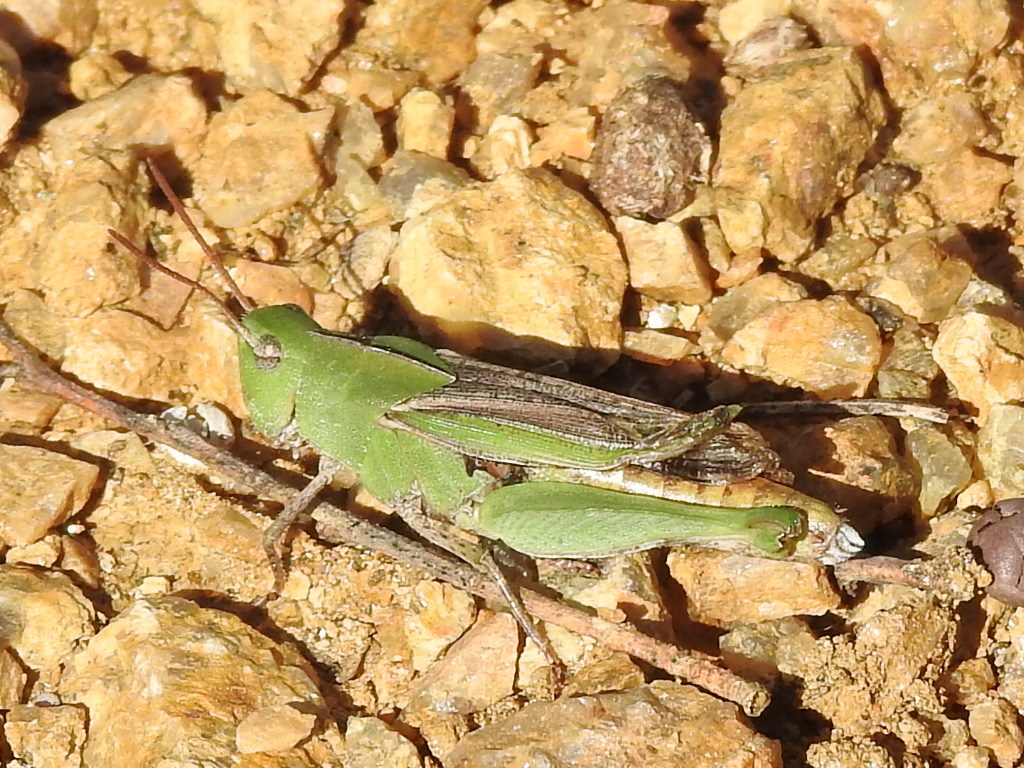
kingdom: Animalia
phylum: Arthropoda
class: Insecta
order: Orthoptera
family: Acrididae
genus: Chortophaga
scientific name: Chortophaga viridifasciata
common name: Green-striped grasshopper
